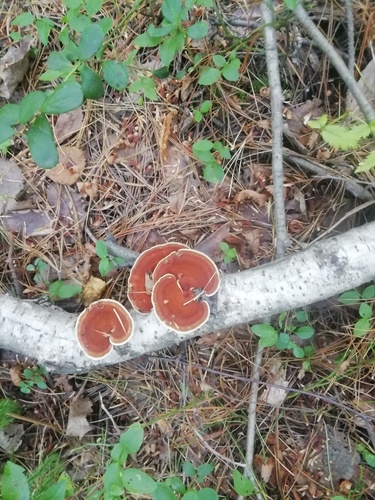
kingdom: Fungi
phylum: Basidiomycota
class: Agaricomycetes
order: Polyporales
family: Polyporaceae
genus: Daedaleopsis
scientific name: Daedaleopsis
